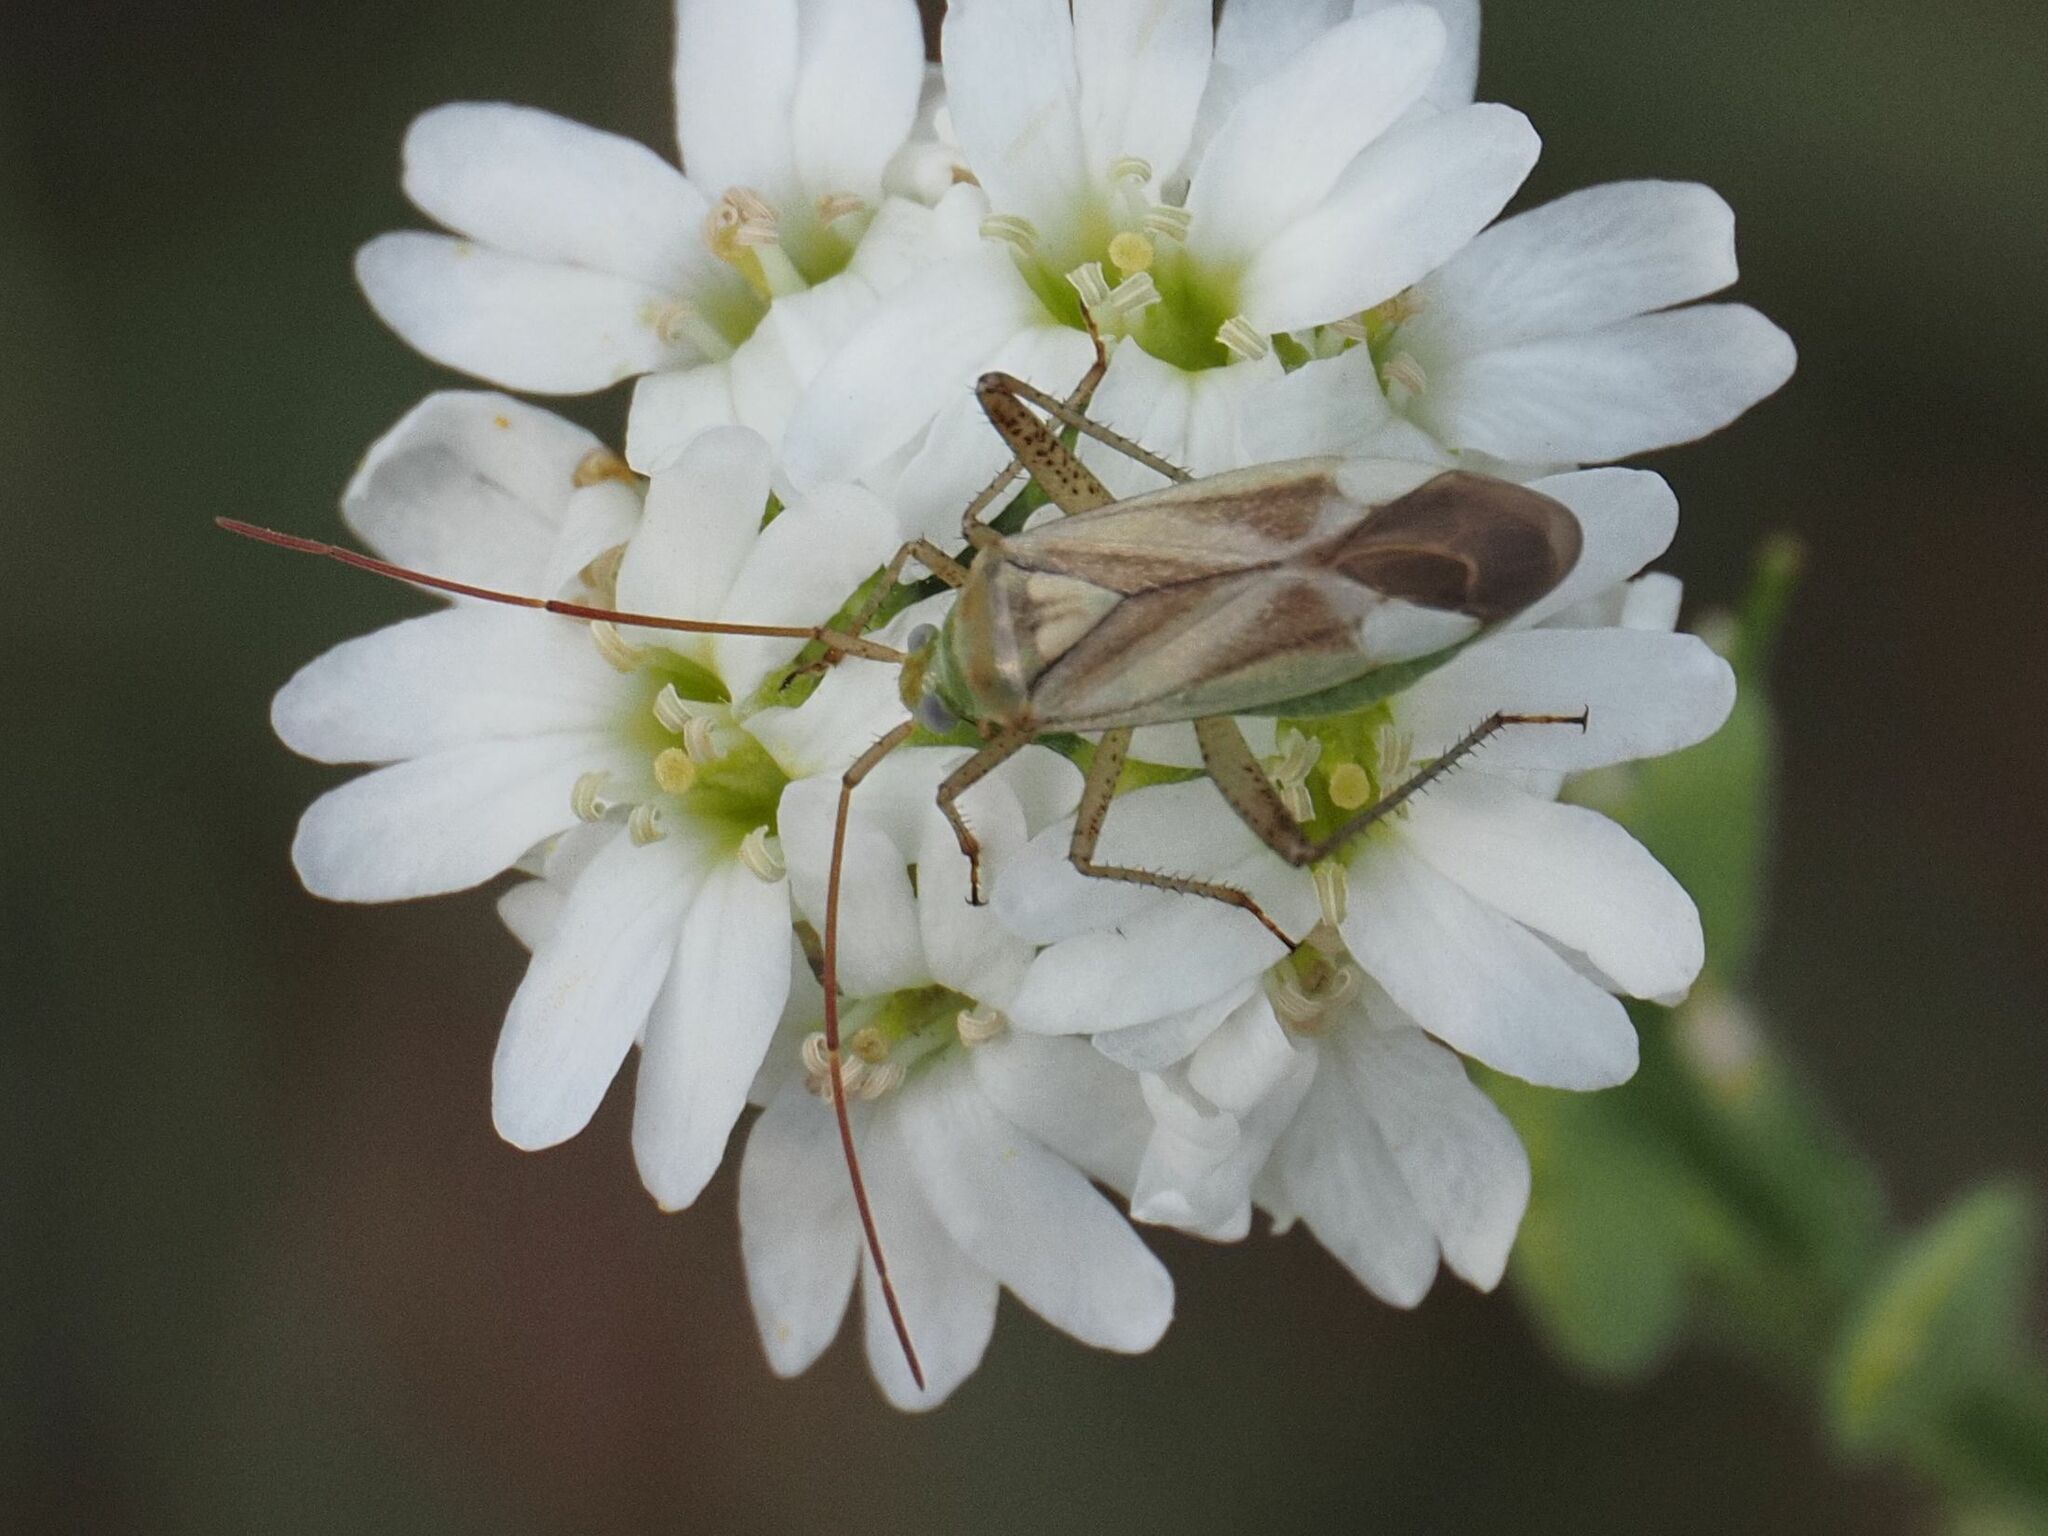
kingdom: Animalia
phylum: Arthropoda
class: Insecta
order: Hemiptera
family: Miridae
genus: Adelphocoris
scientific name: Adelphocoris lineolatus
